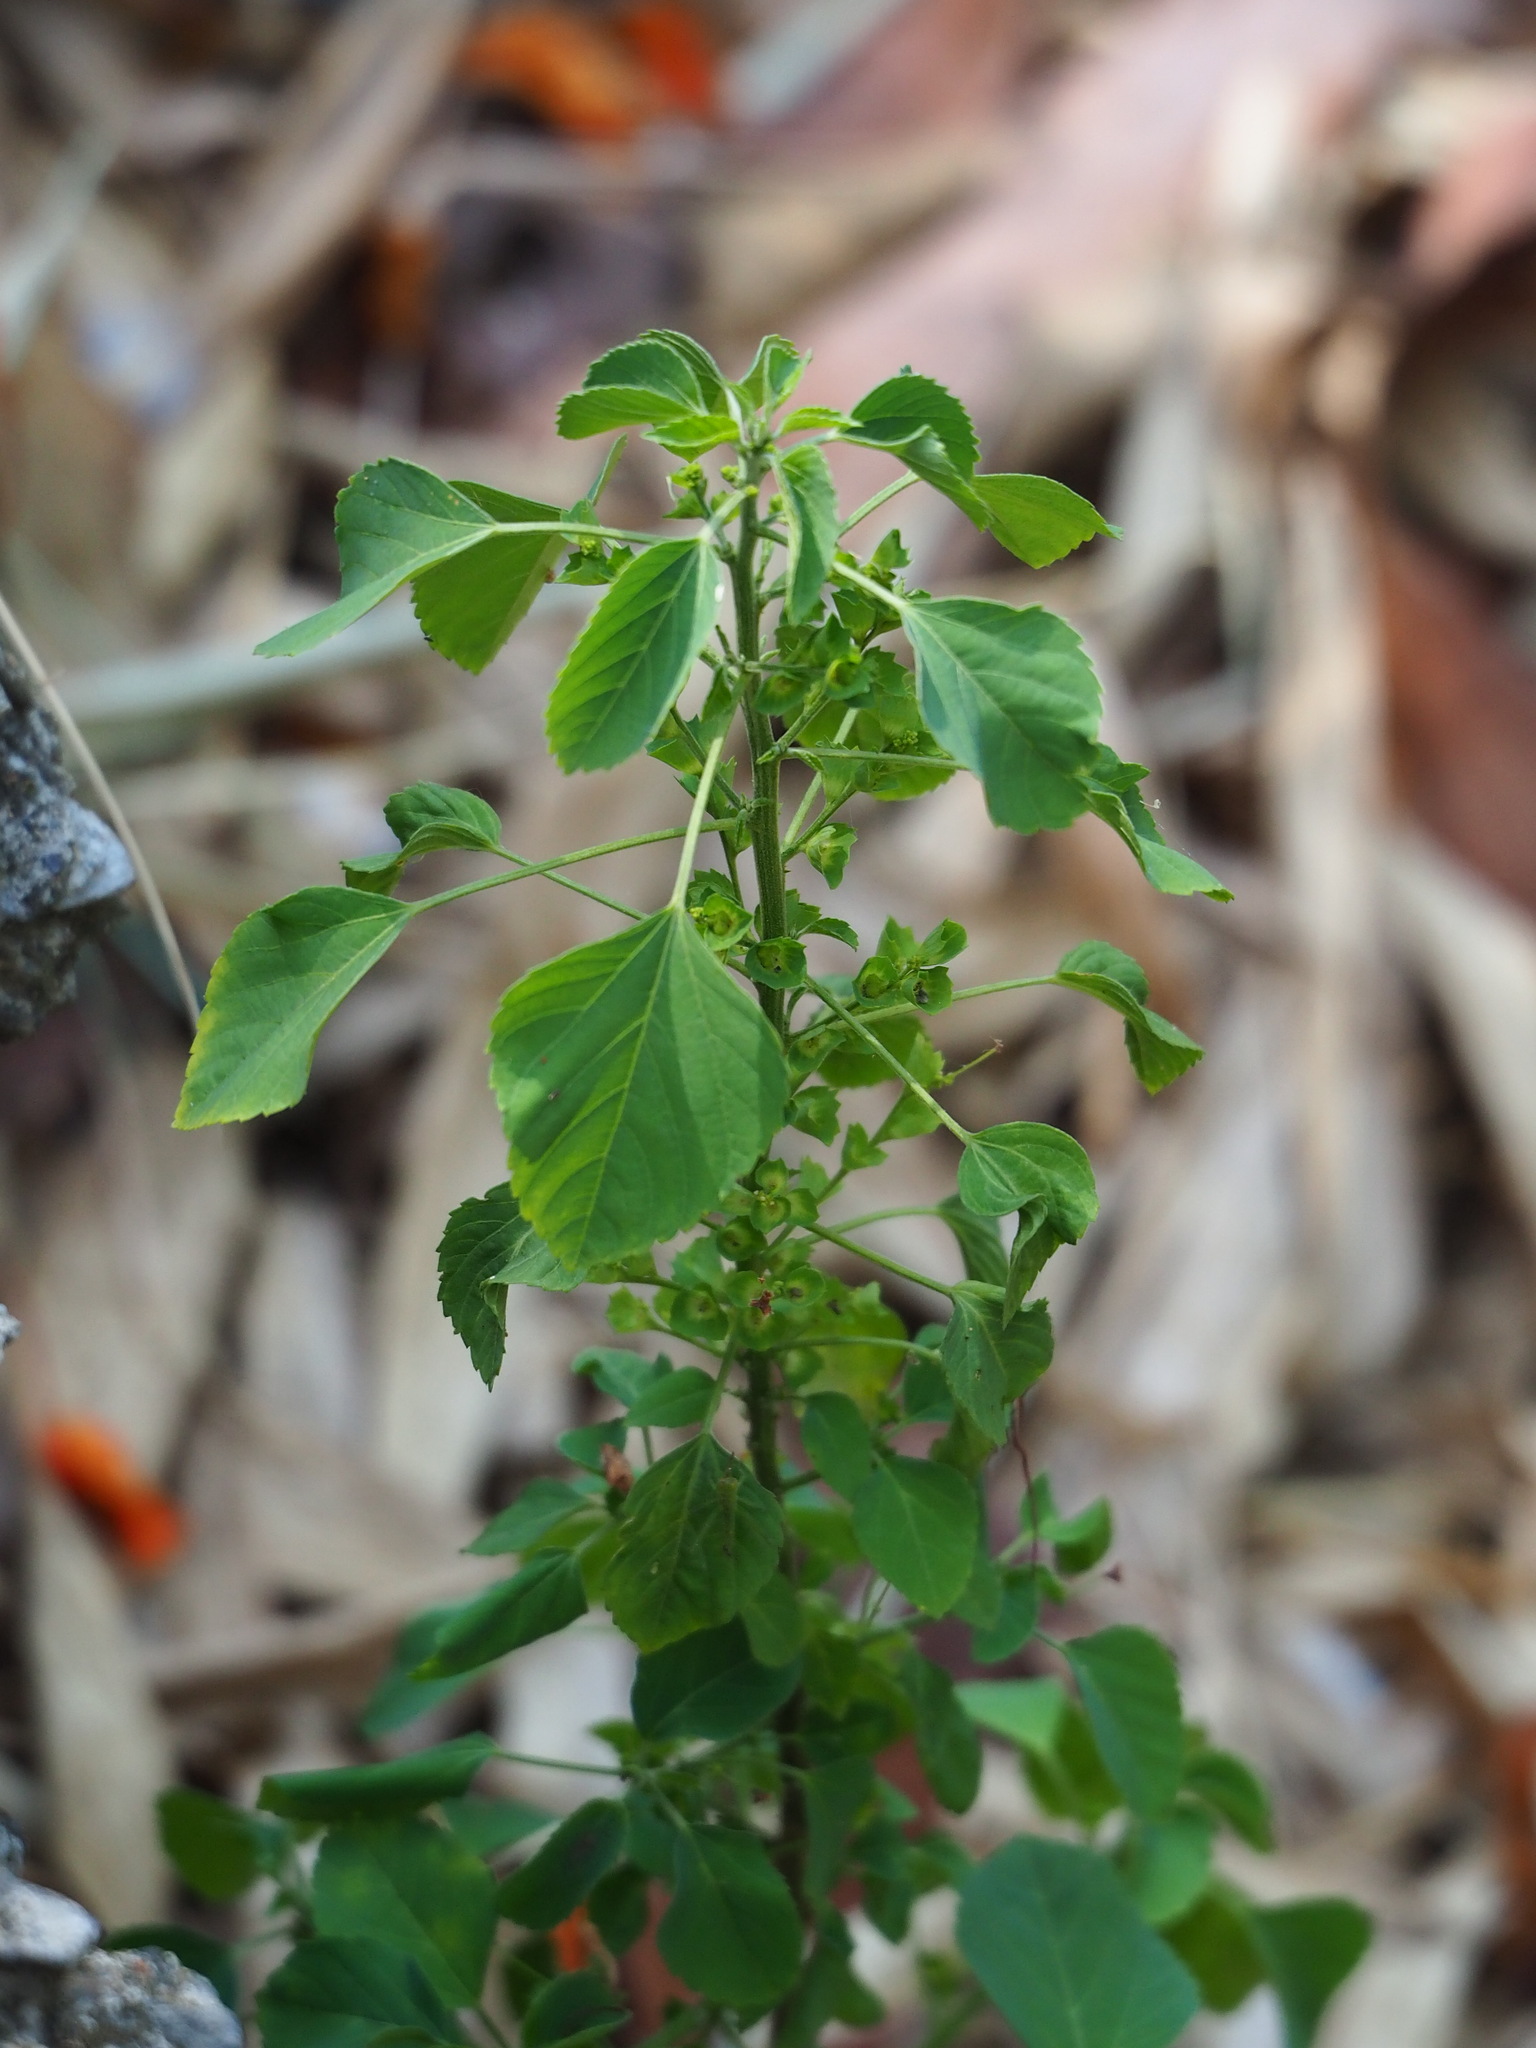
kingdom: Plantae
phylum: Tracheophyta
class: Magnoliopsida
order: Malpighiales
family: Euphorbiaceae
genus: Acalypha
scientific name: Acalypha indica
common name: Indian acalypha
